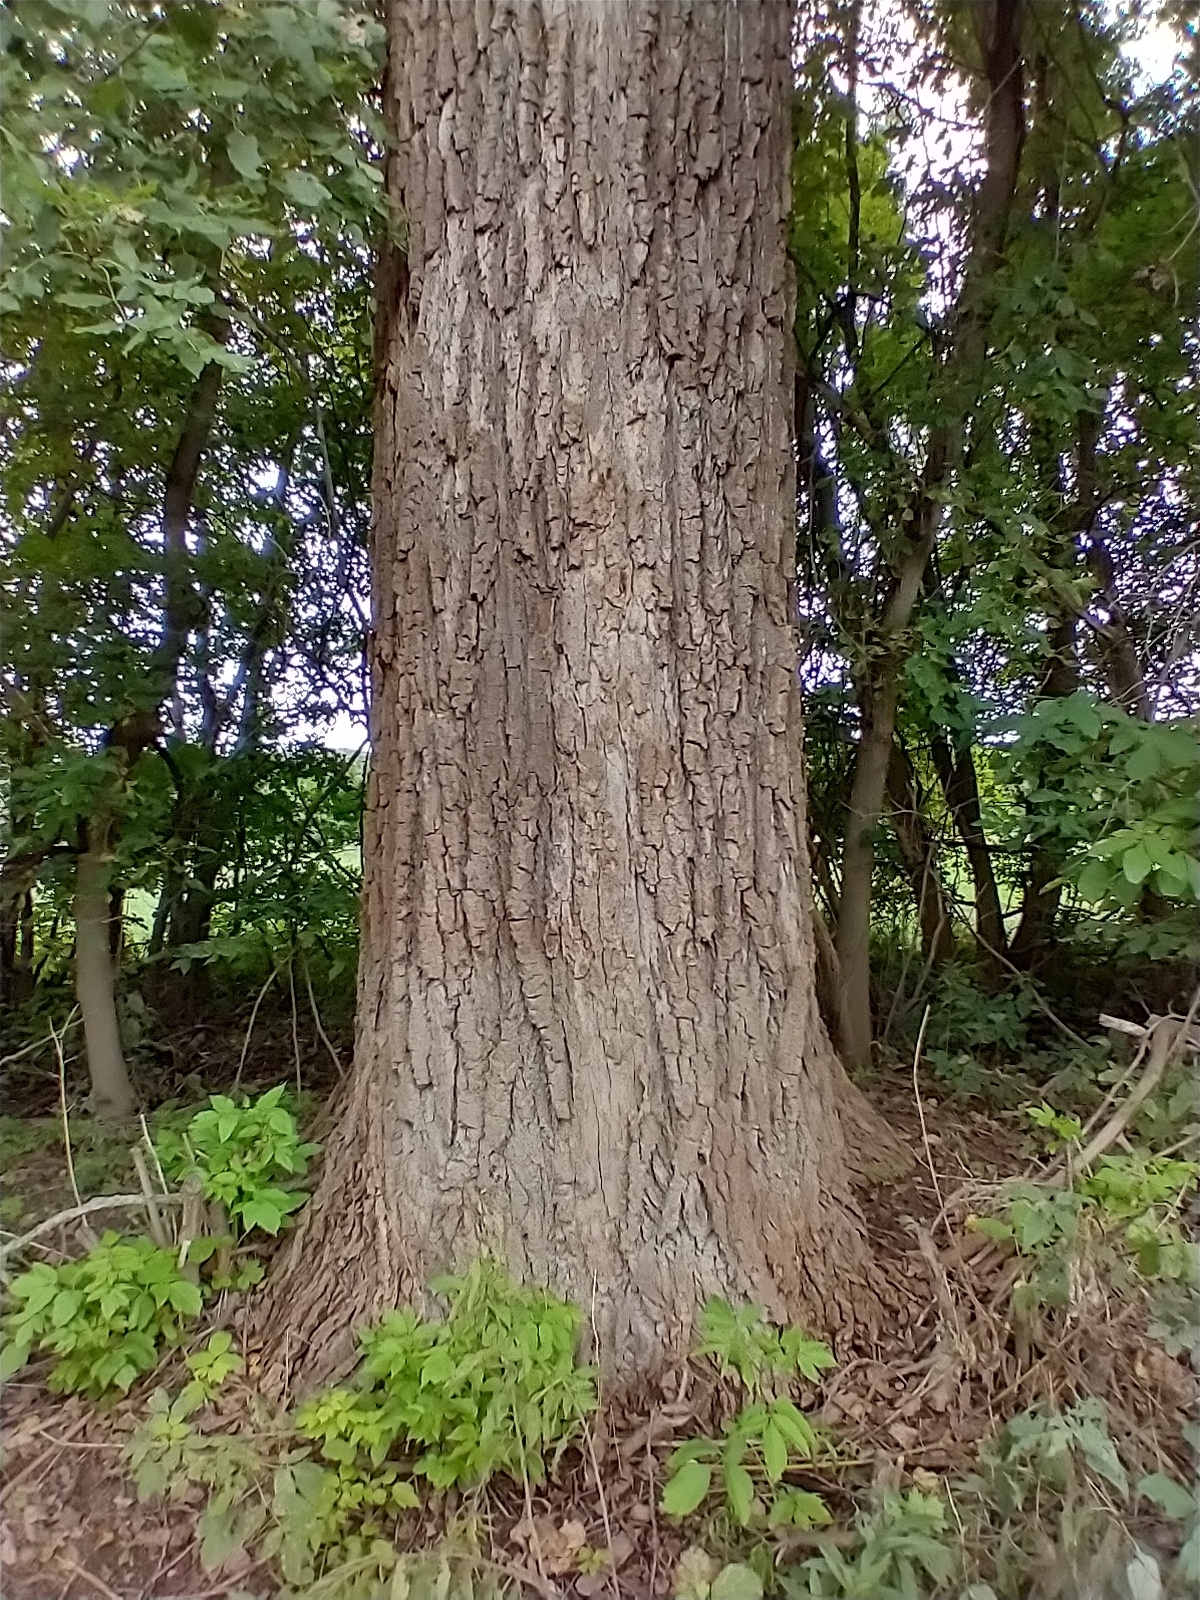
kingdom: Plantae
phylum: Tracheophyta
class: Magnoliopsida
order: Malpighiales
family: Salicaceae
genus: Populus
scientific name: Populus deltoides
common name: Eastern cottonwood
